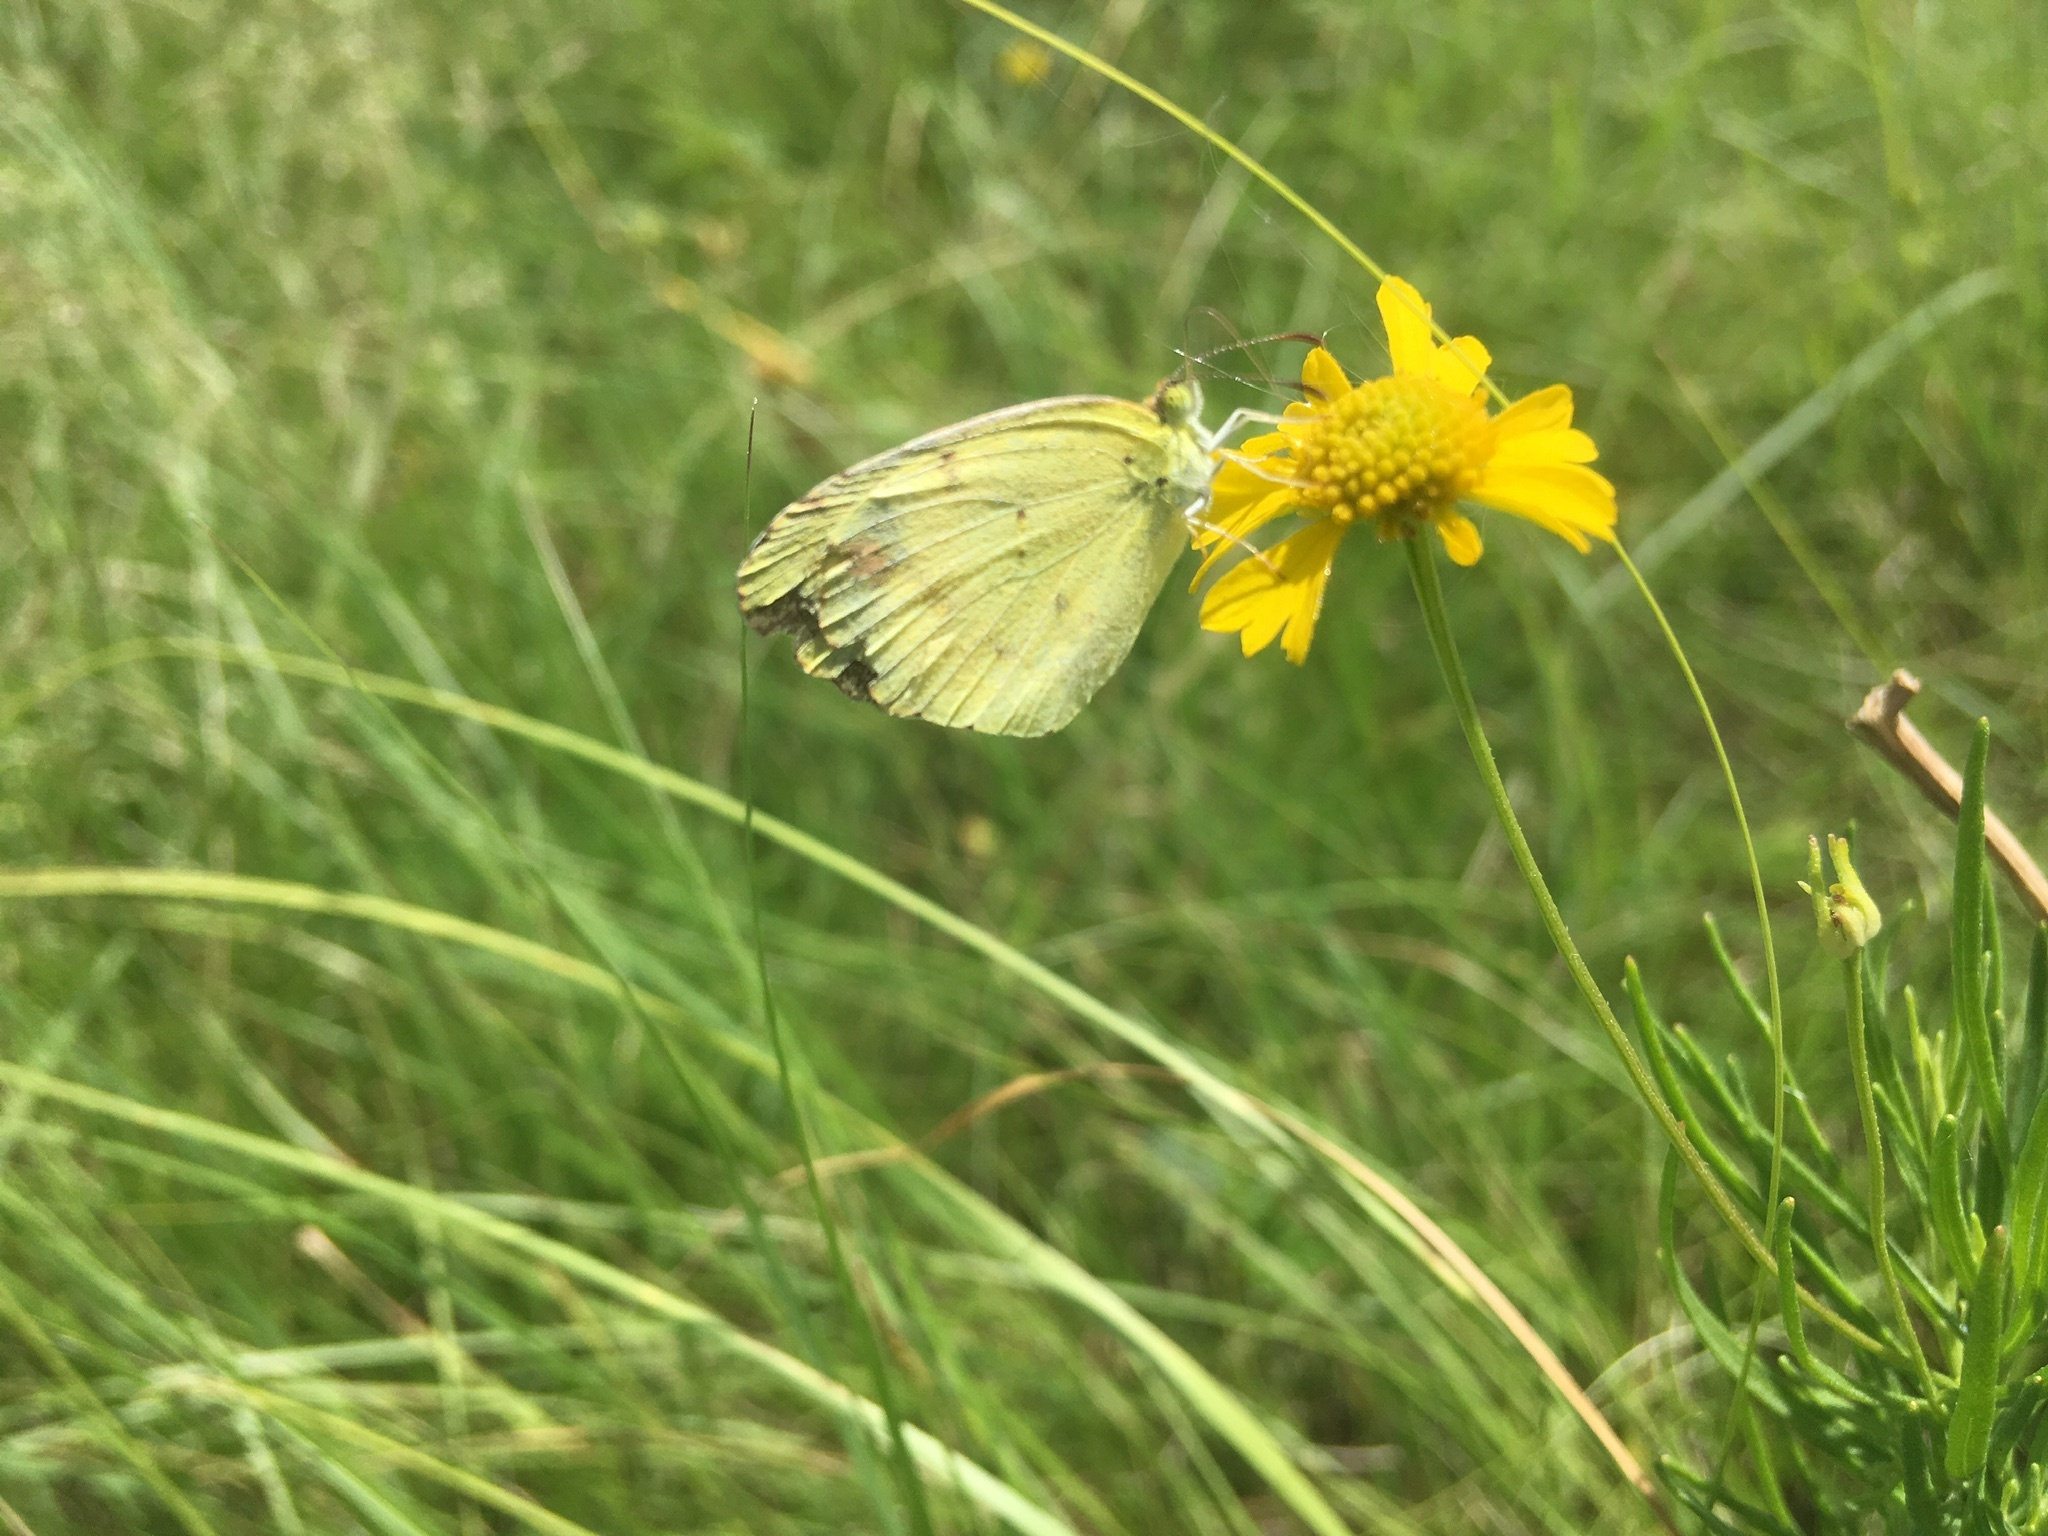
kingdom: Animalia
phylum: Arthropoda
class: Insecta
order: Lepidoptera
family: Pieridae
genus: Pyrisitia
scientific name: Pyrisitia lisa
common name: Little yellow
